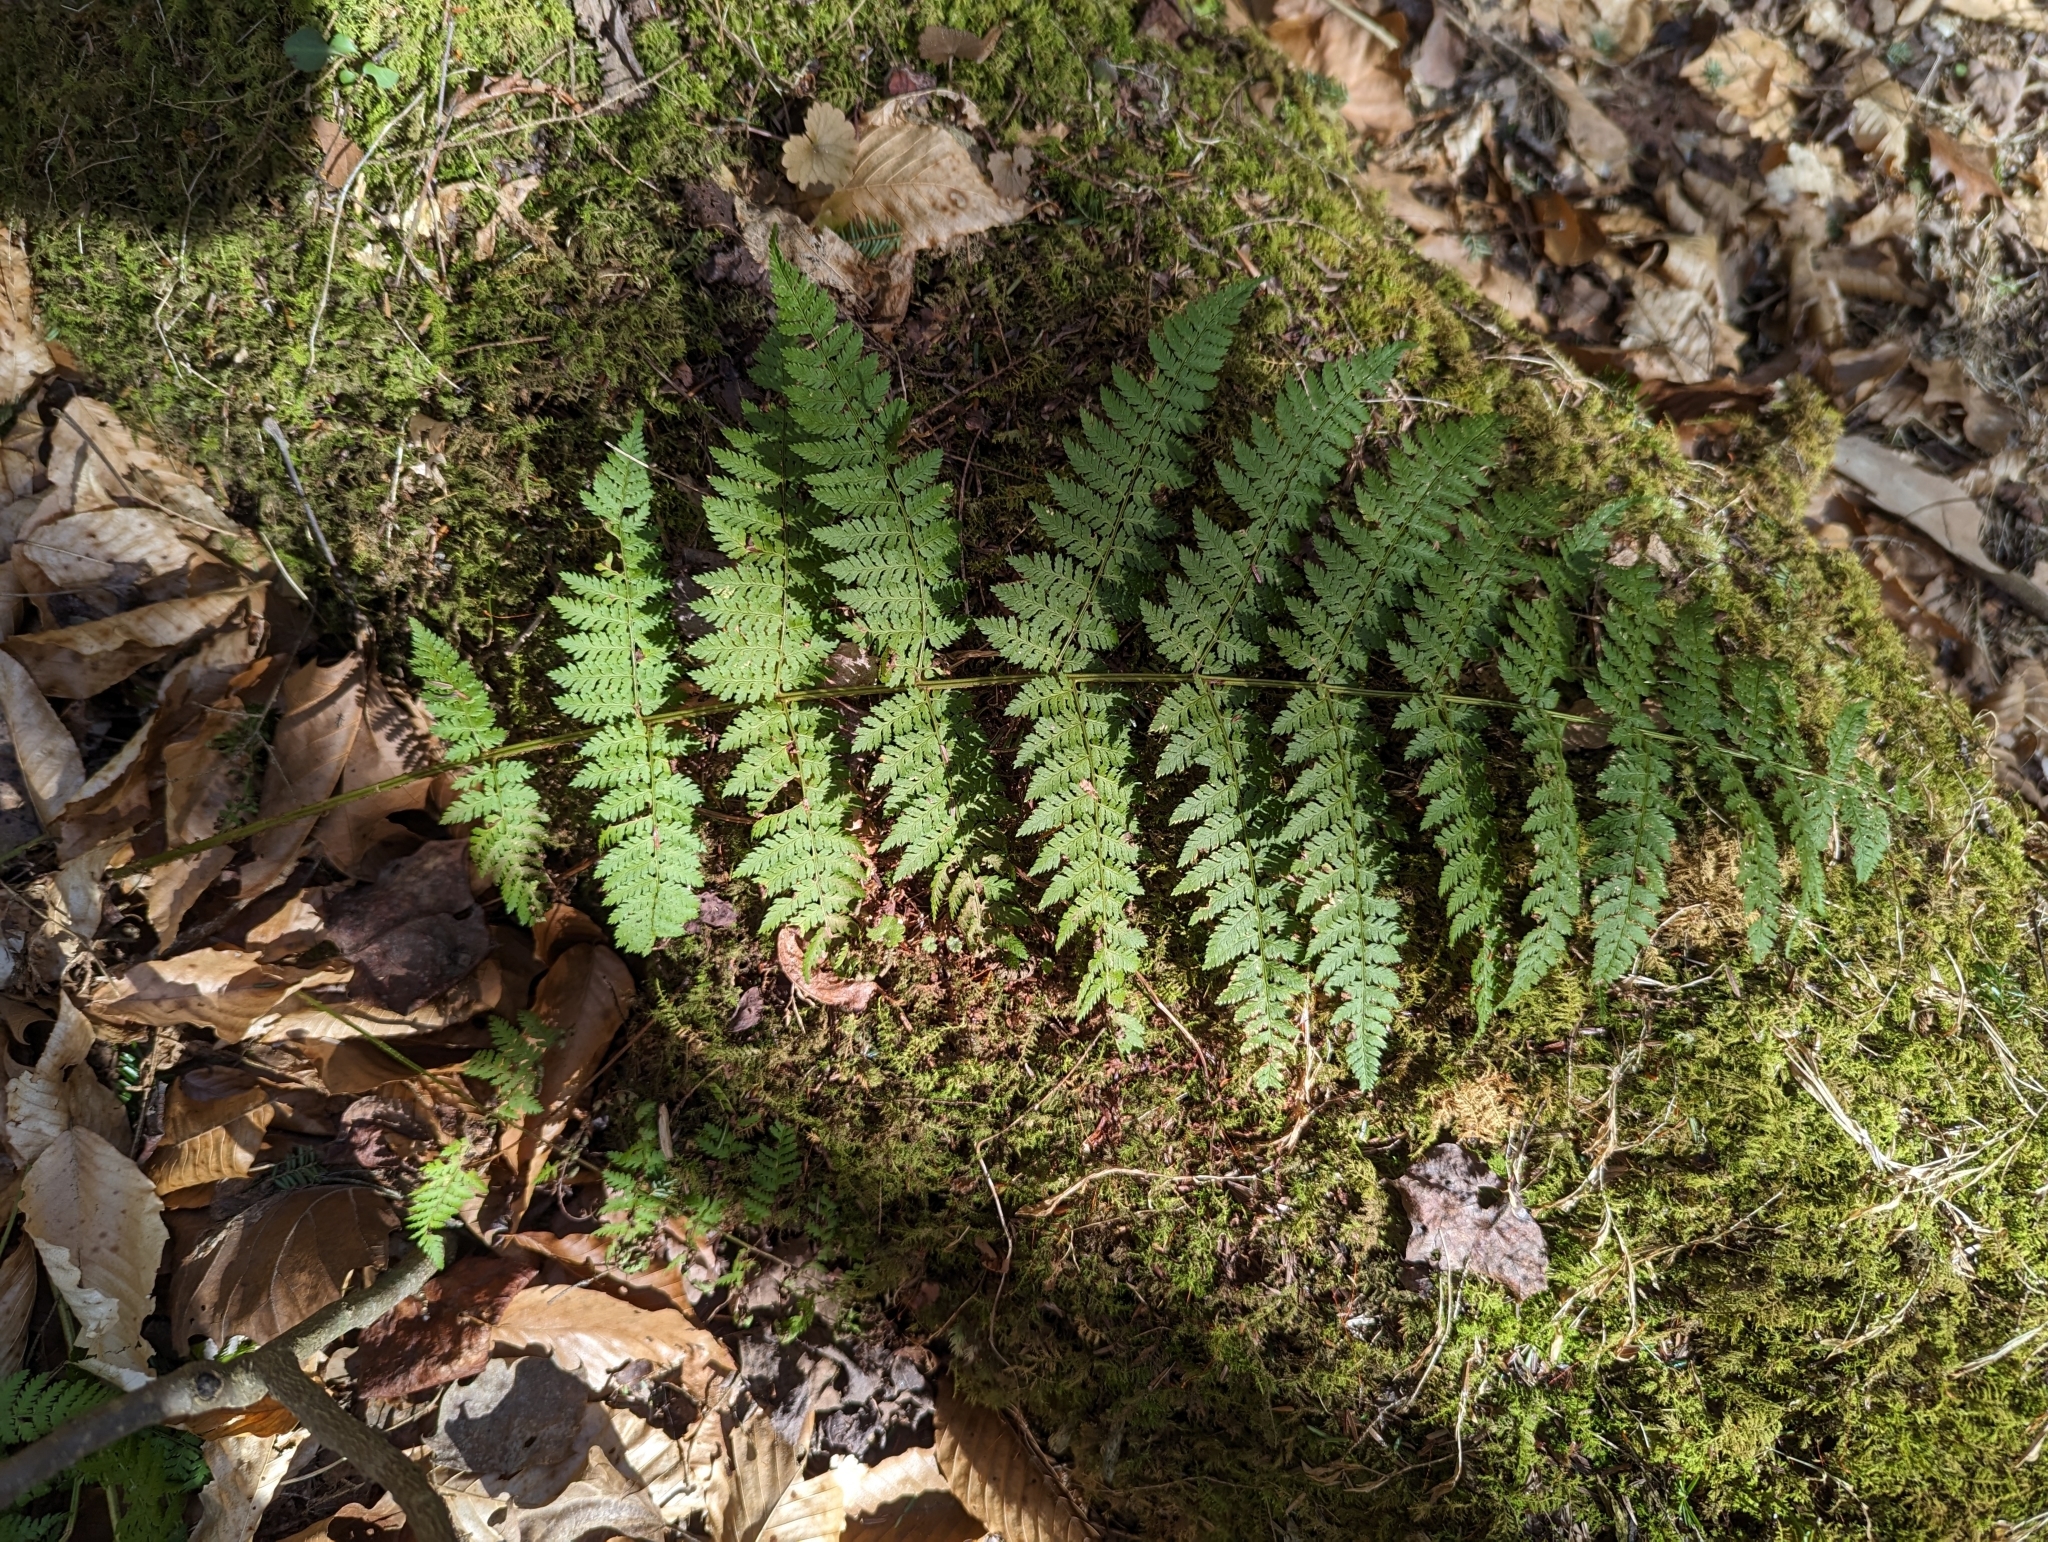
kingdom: Plantae
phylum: Tracheophyta
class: Polypodiopsida
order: Polypodiales
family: Dryopteridaceae
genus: Dryopteris
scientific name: Dryopteris intermedia
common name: Evergreen wood fern
